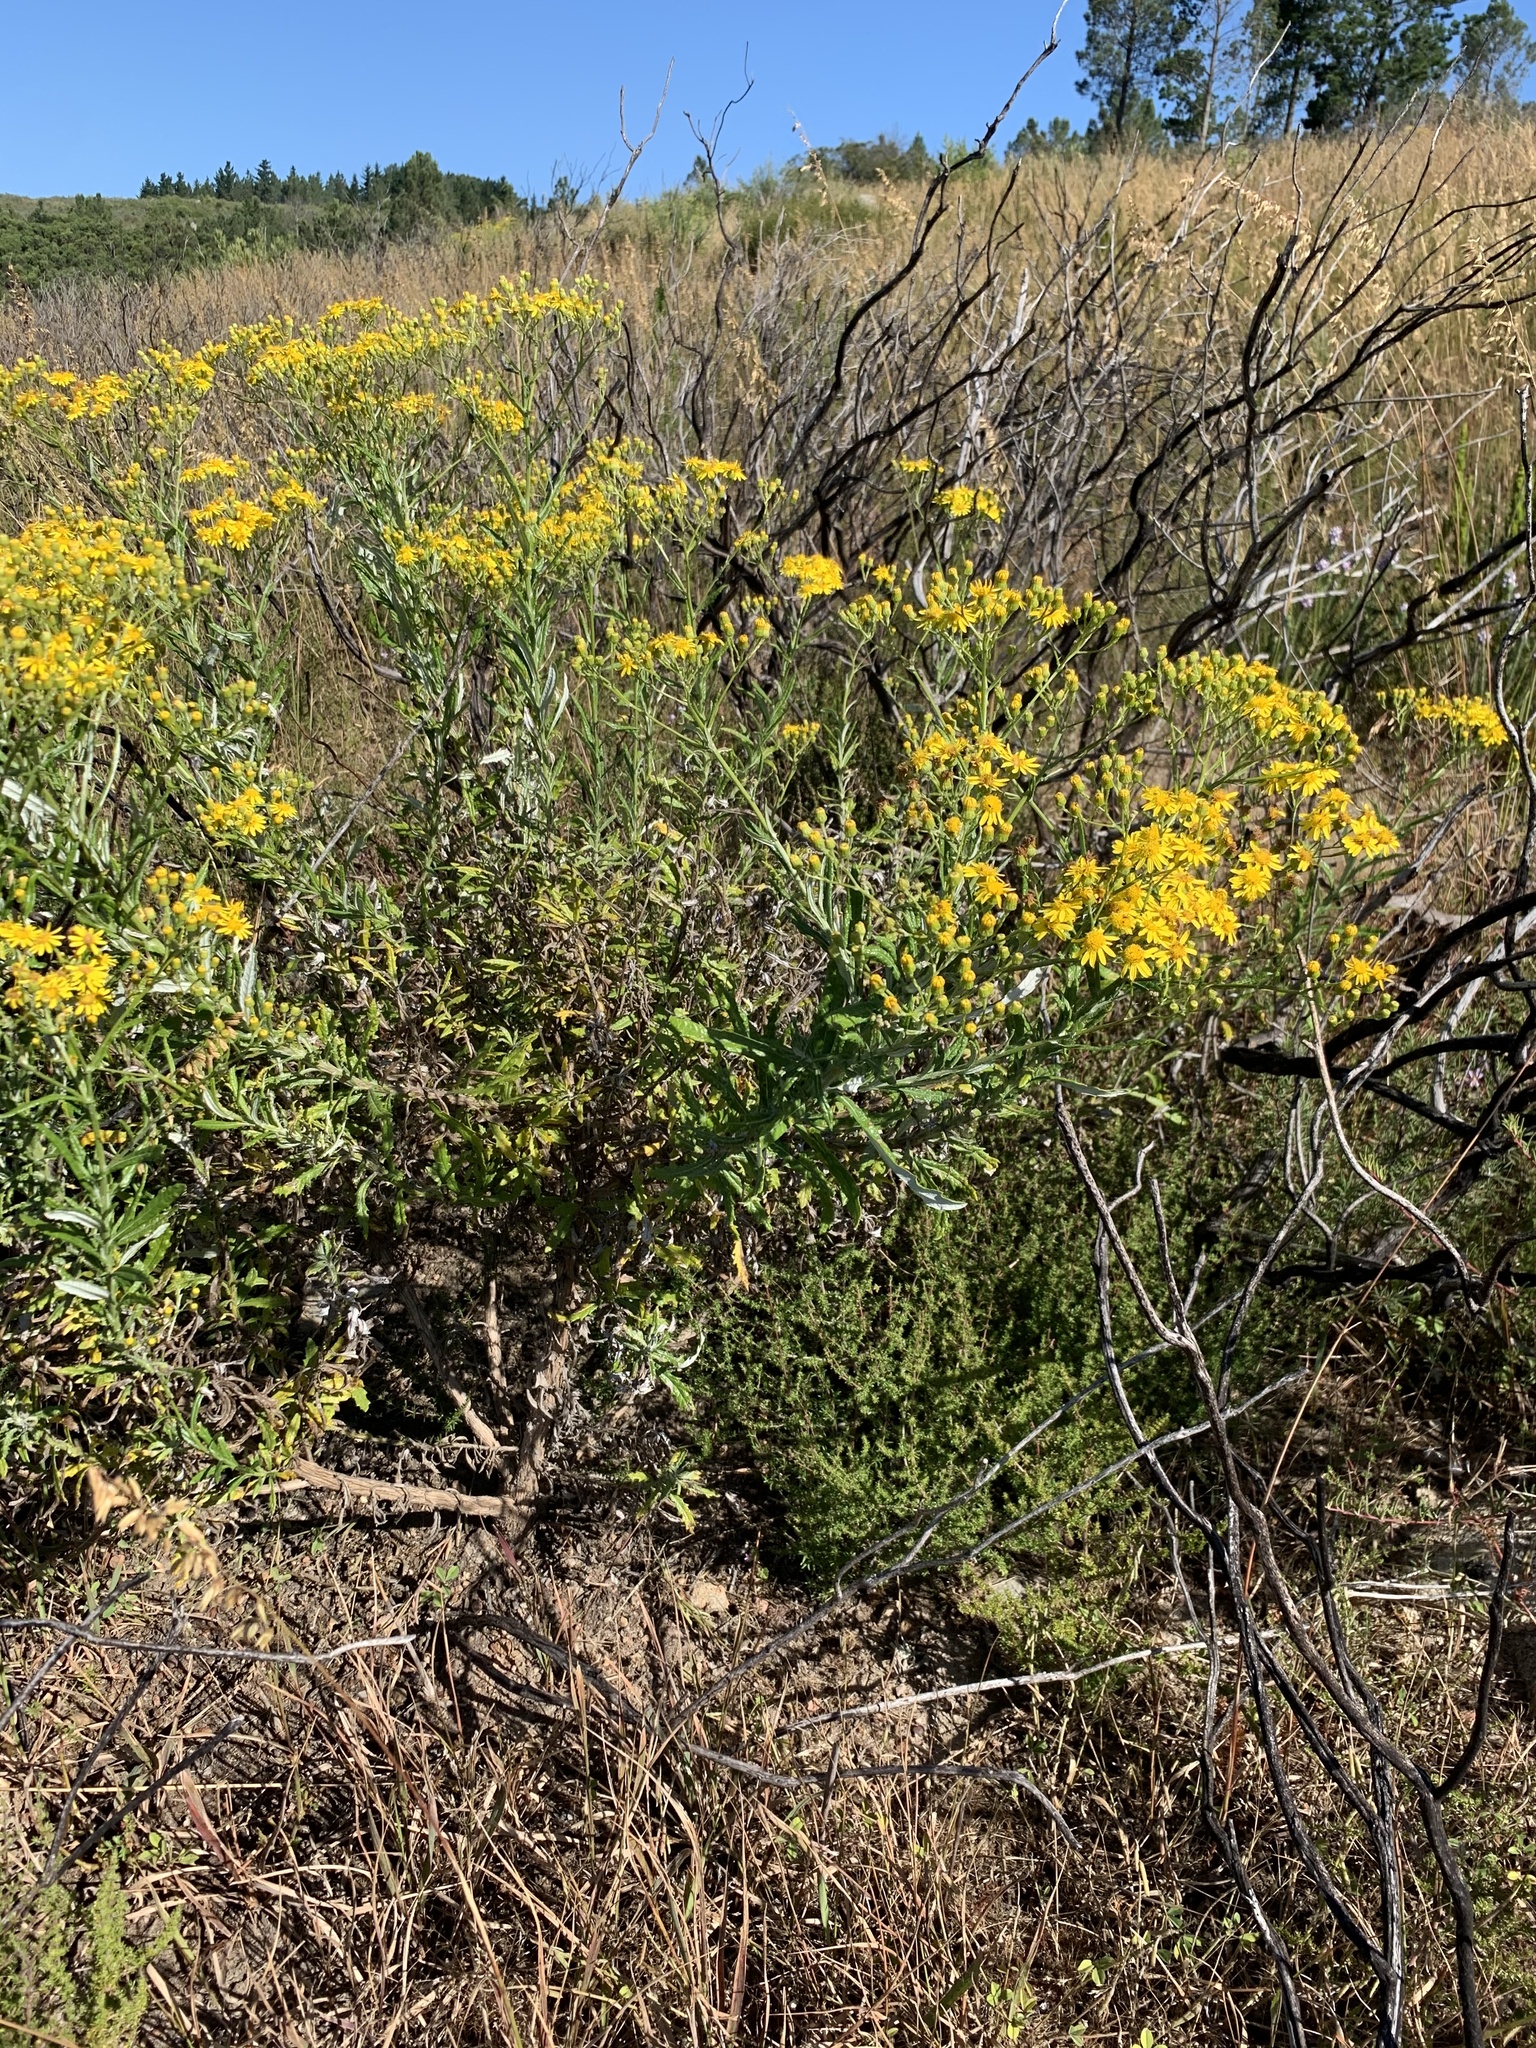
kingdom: Plantae
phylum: Tracheophyta
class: Magnoliopsida
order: Asterales
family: Asteraceae
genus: Senecio
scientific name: Senecio pterophorus
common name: Shoddy ragwort
